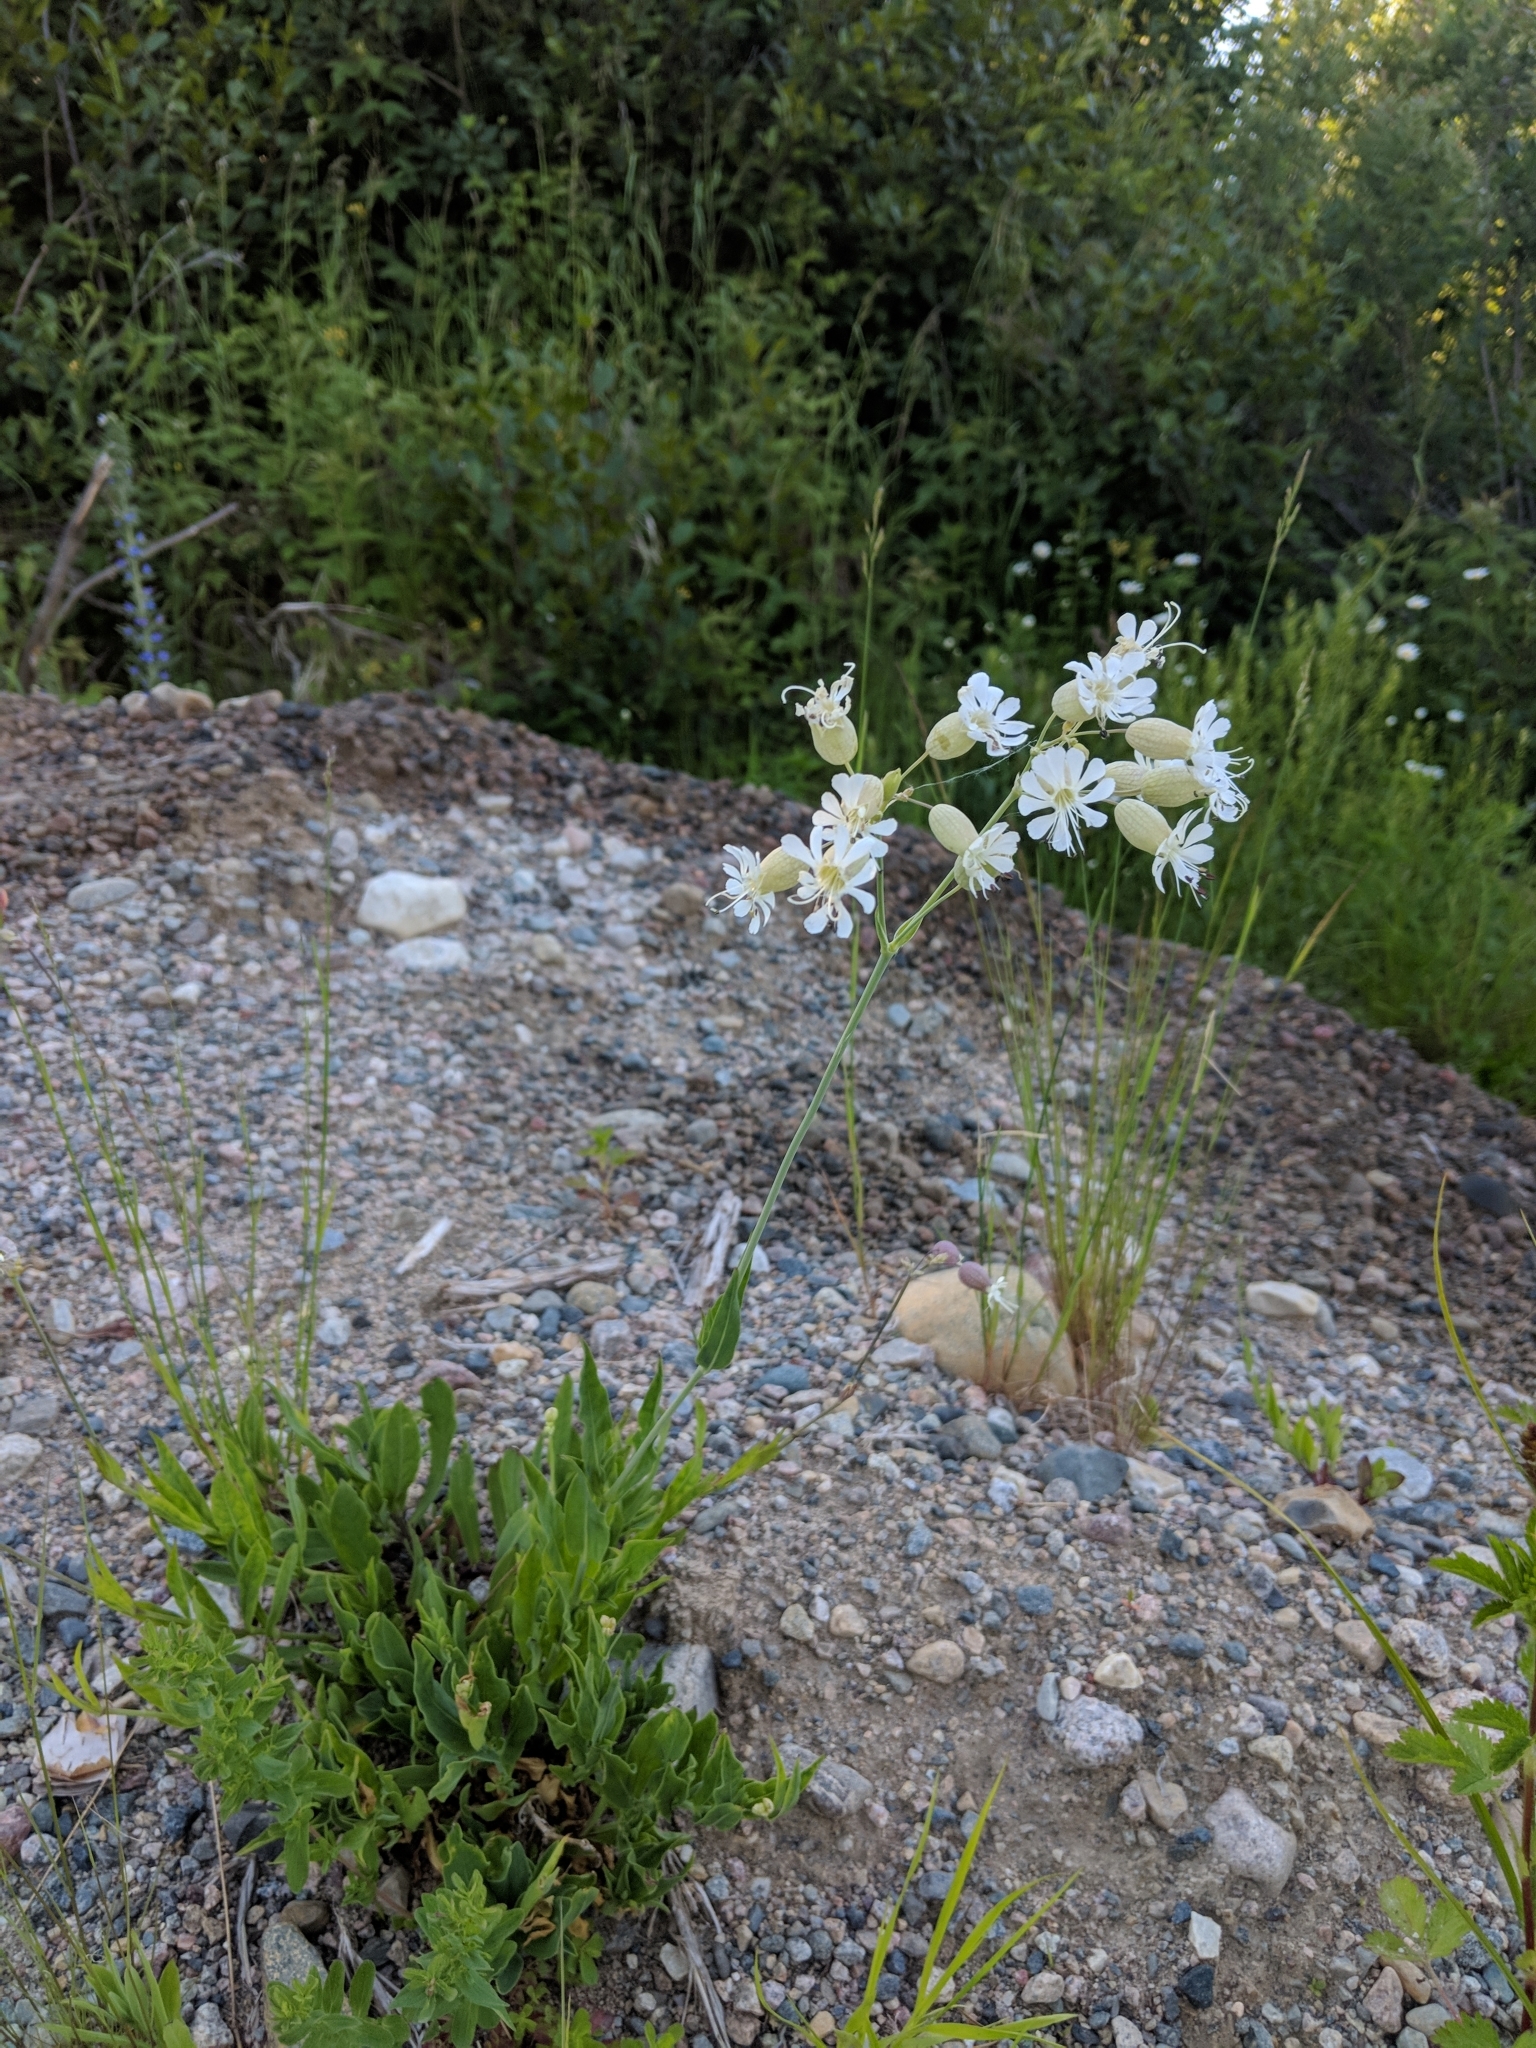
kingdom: Plantae
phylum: Tracheophyta
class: Magnoliopsida
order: Caryophyllales
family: Caryophyllaceae
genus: Silene
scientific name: Silene vulgaris
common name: Bladder campion
